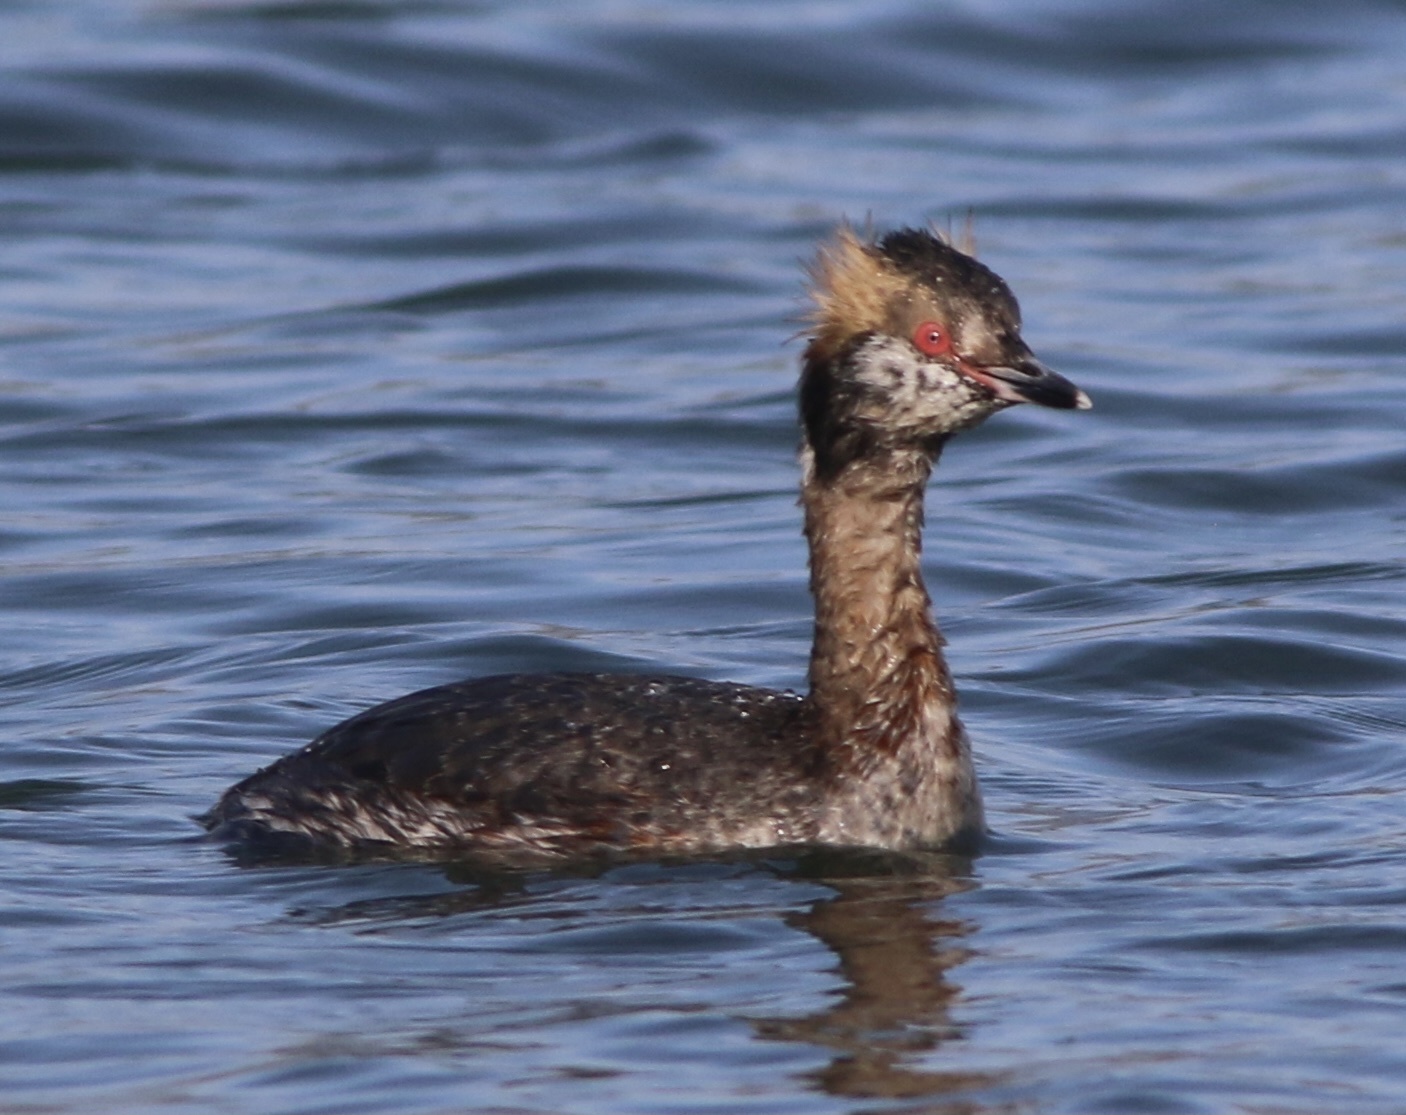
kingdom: Animalia
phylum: Chordata
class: Aves
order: Podicipediformes
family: Podicipedidae
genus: Podiceps
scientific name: Podiceps auritus
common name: Horned grebe
